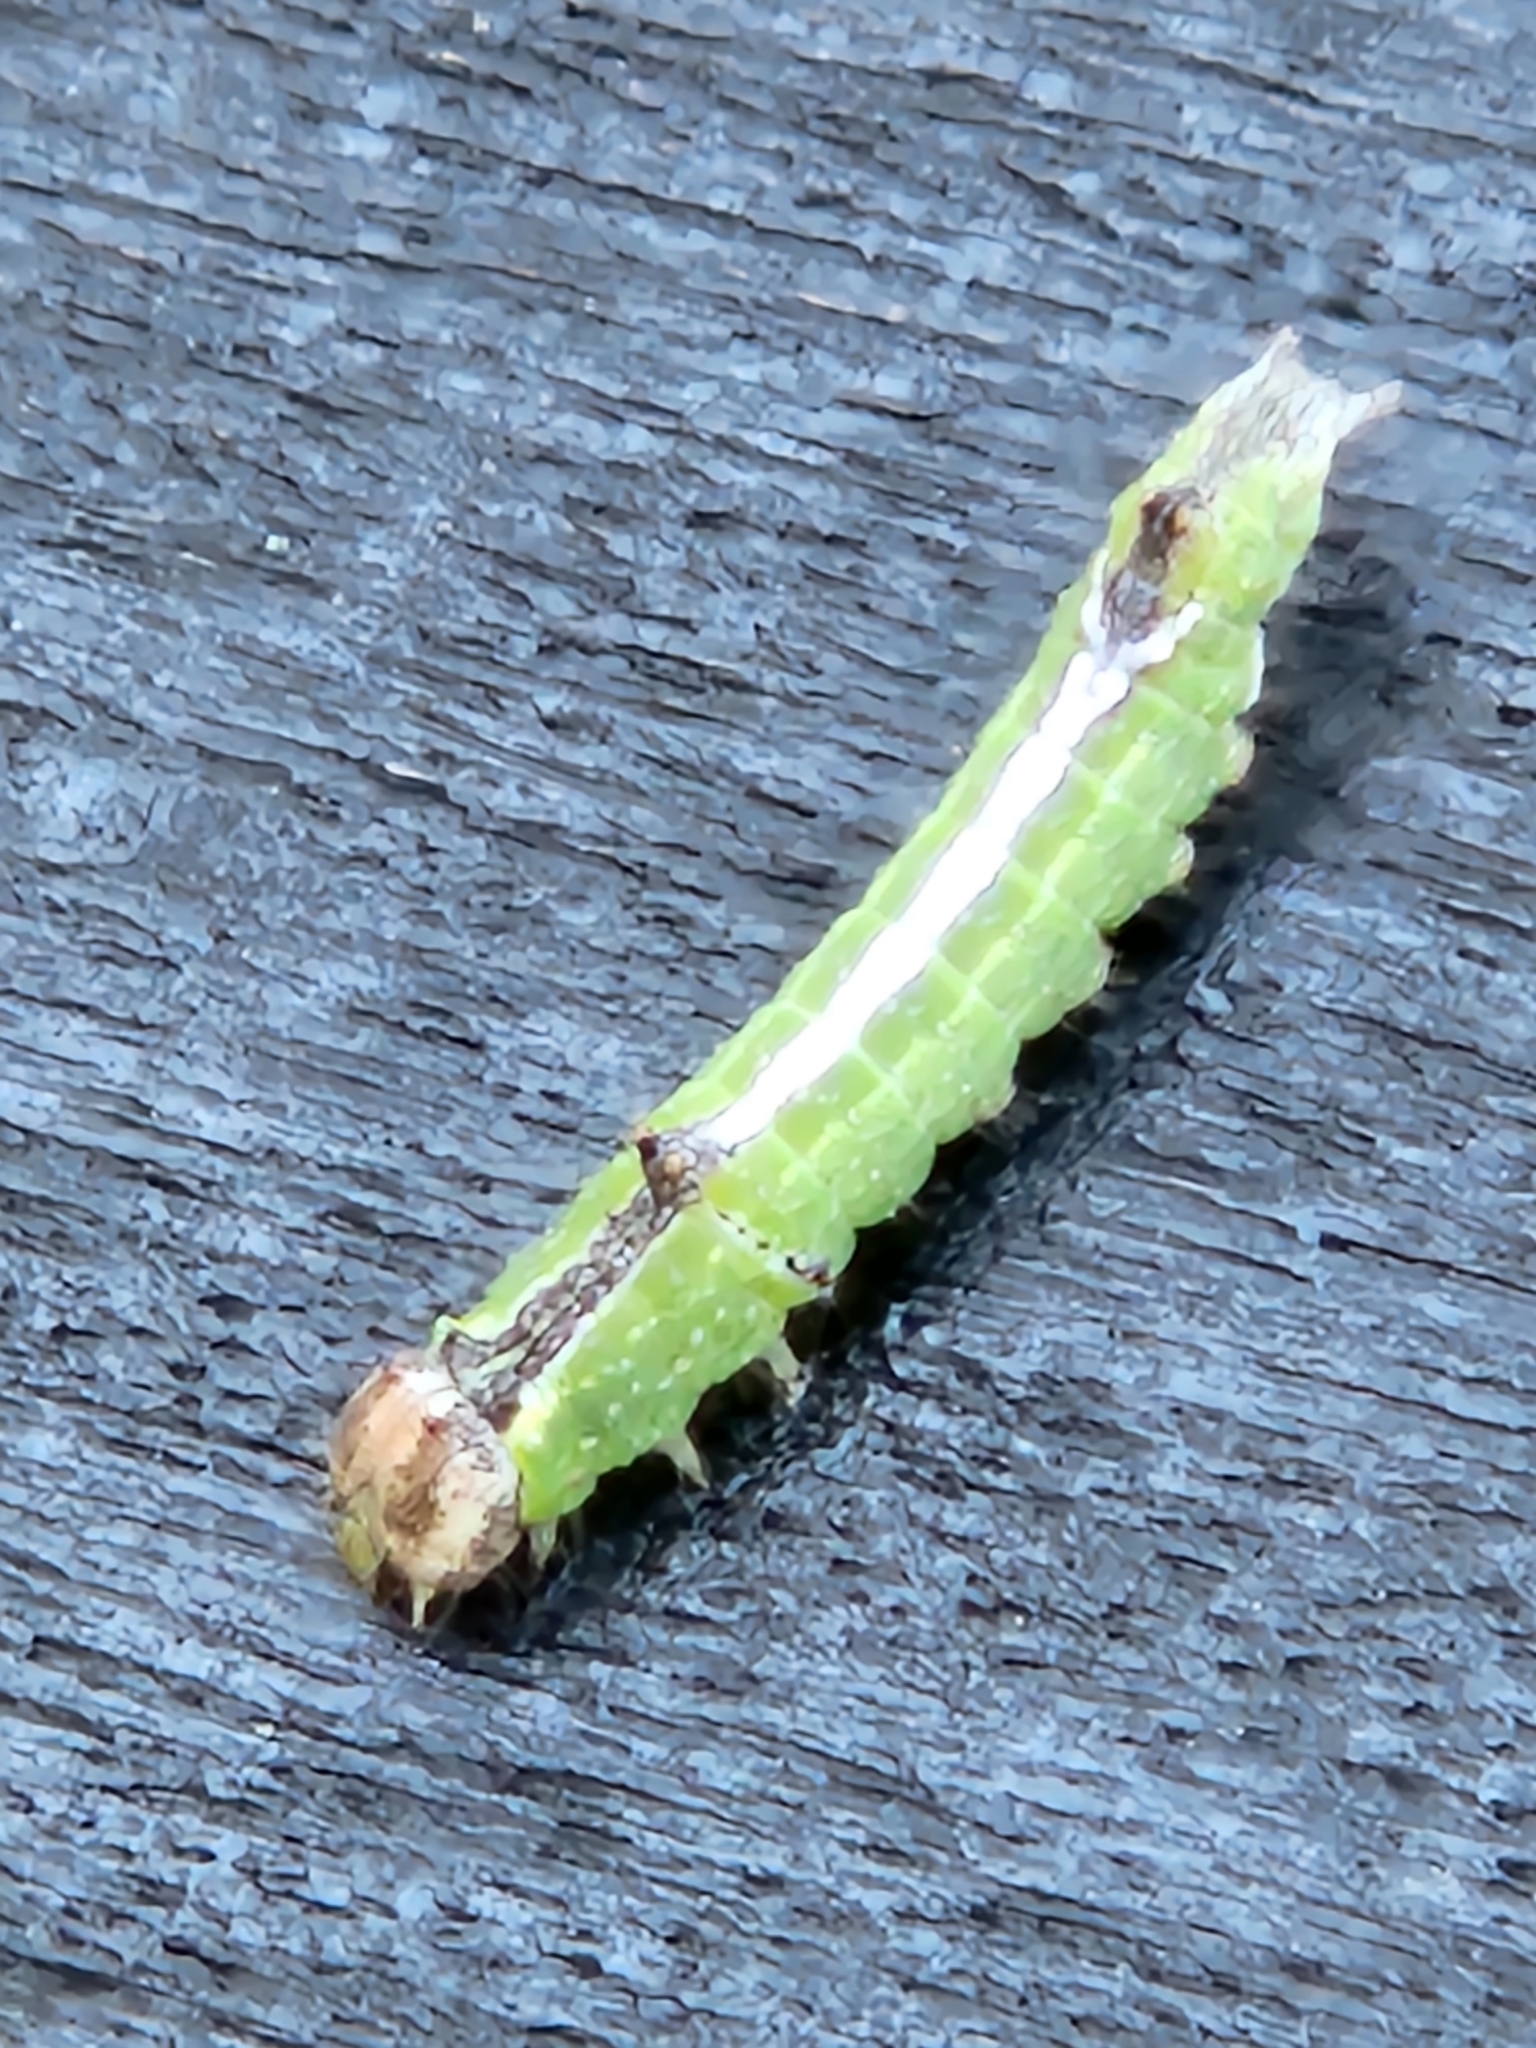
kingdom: Animalia
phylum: Arthropoda
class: Insecta
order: Lepidoptera
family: Notodontidae
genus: Schizura
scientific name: Schizura
